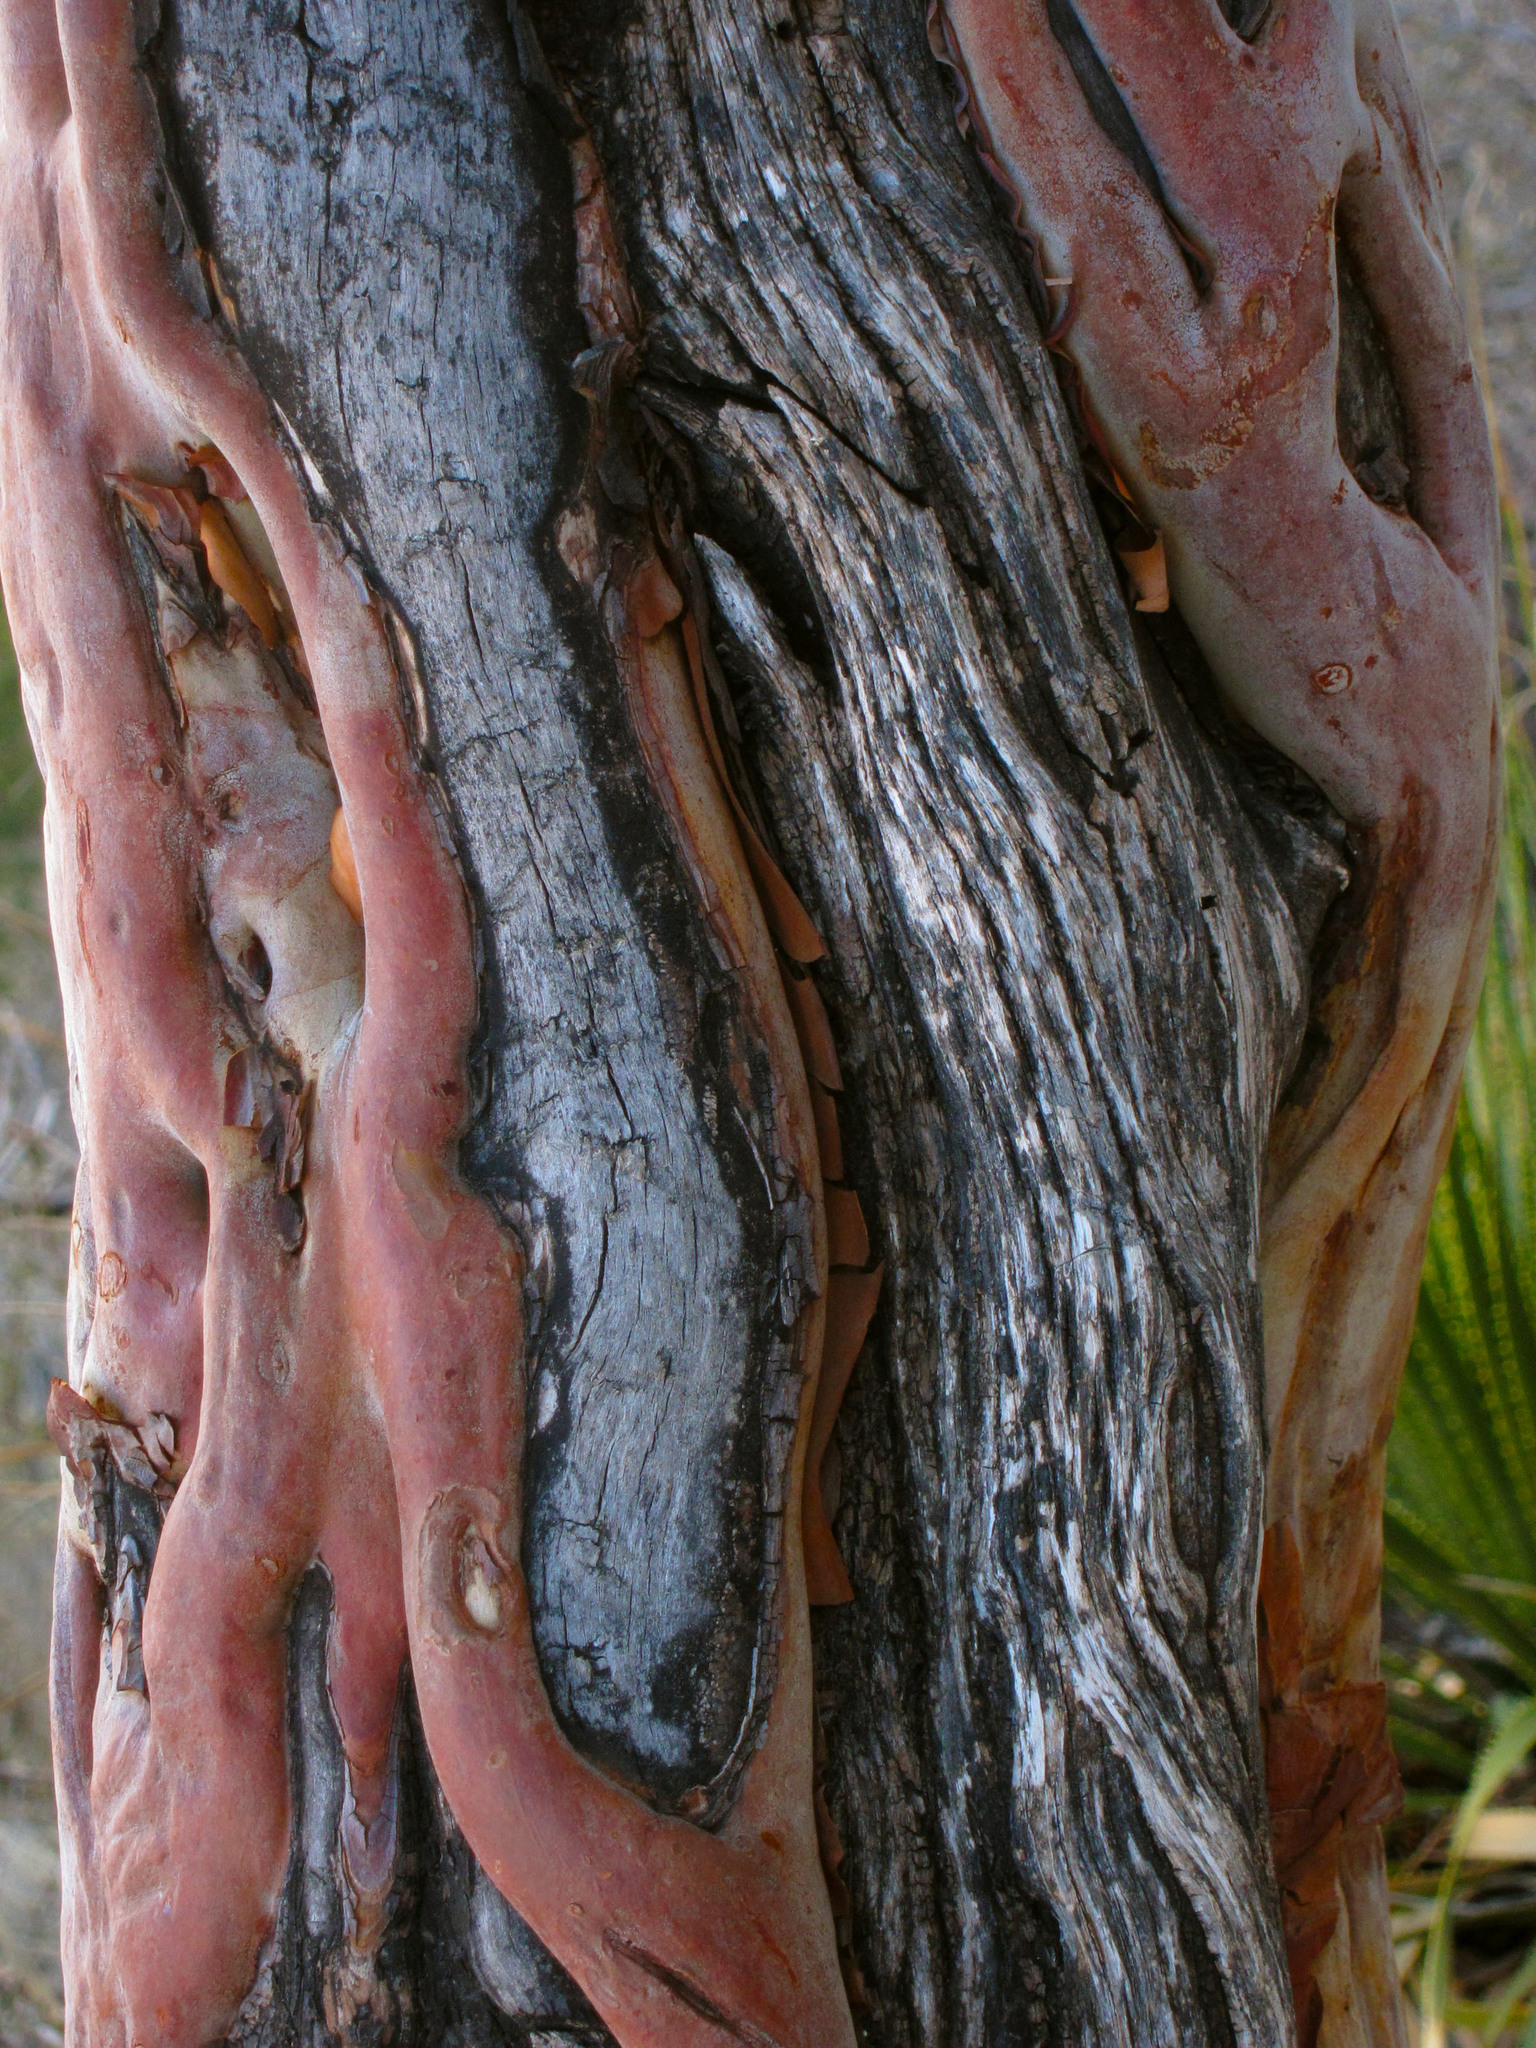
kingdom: Plantae
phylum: Tracheophyta
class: Magnoliopsida
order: Ericales
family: Ericaceae
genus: Arbutus
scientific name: Arbutus xalapensis
